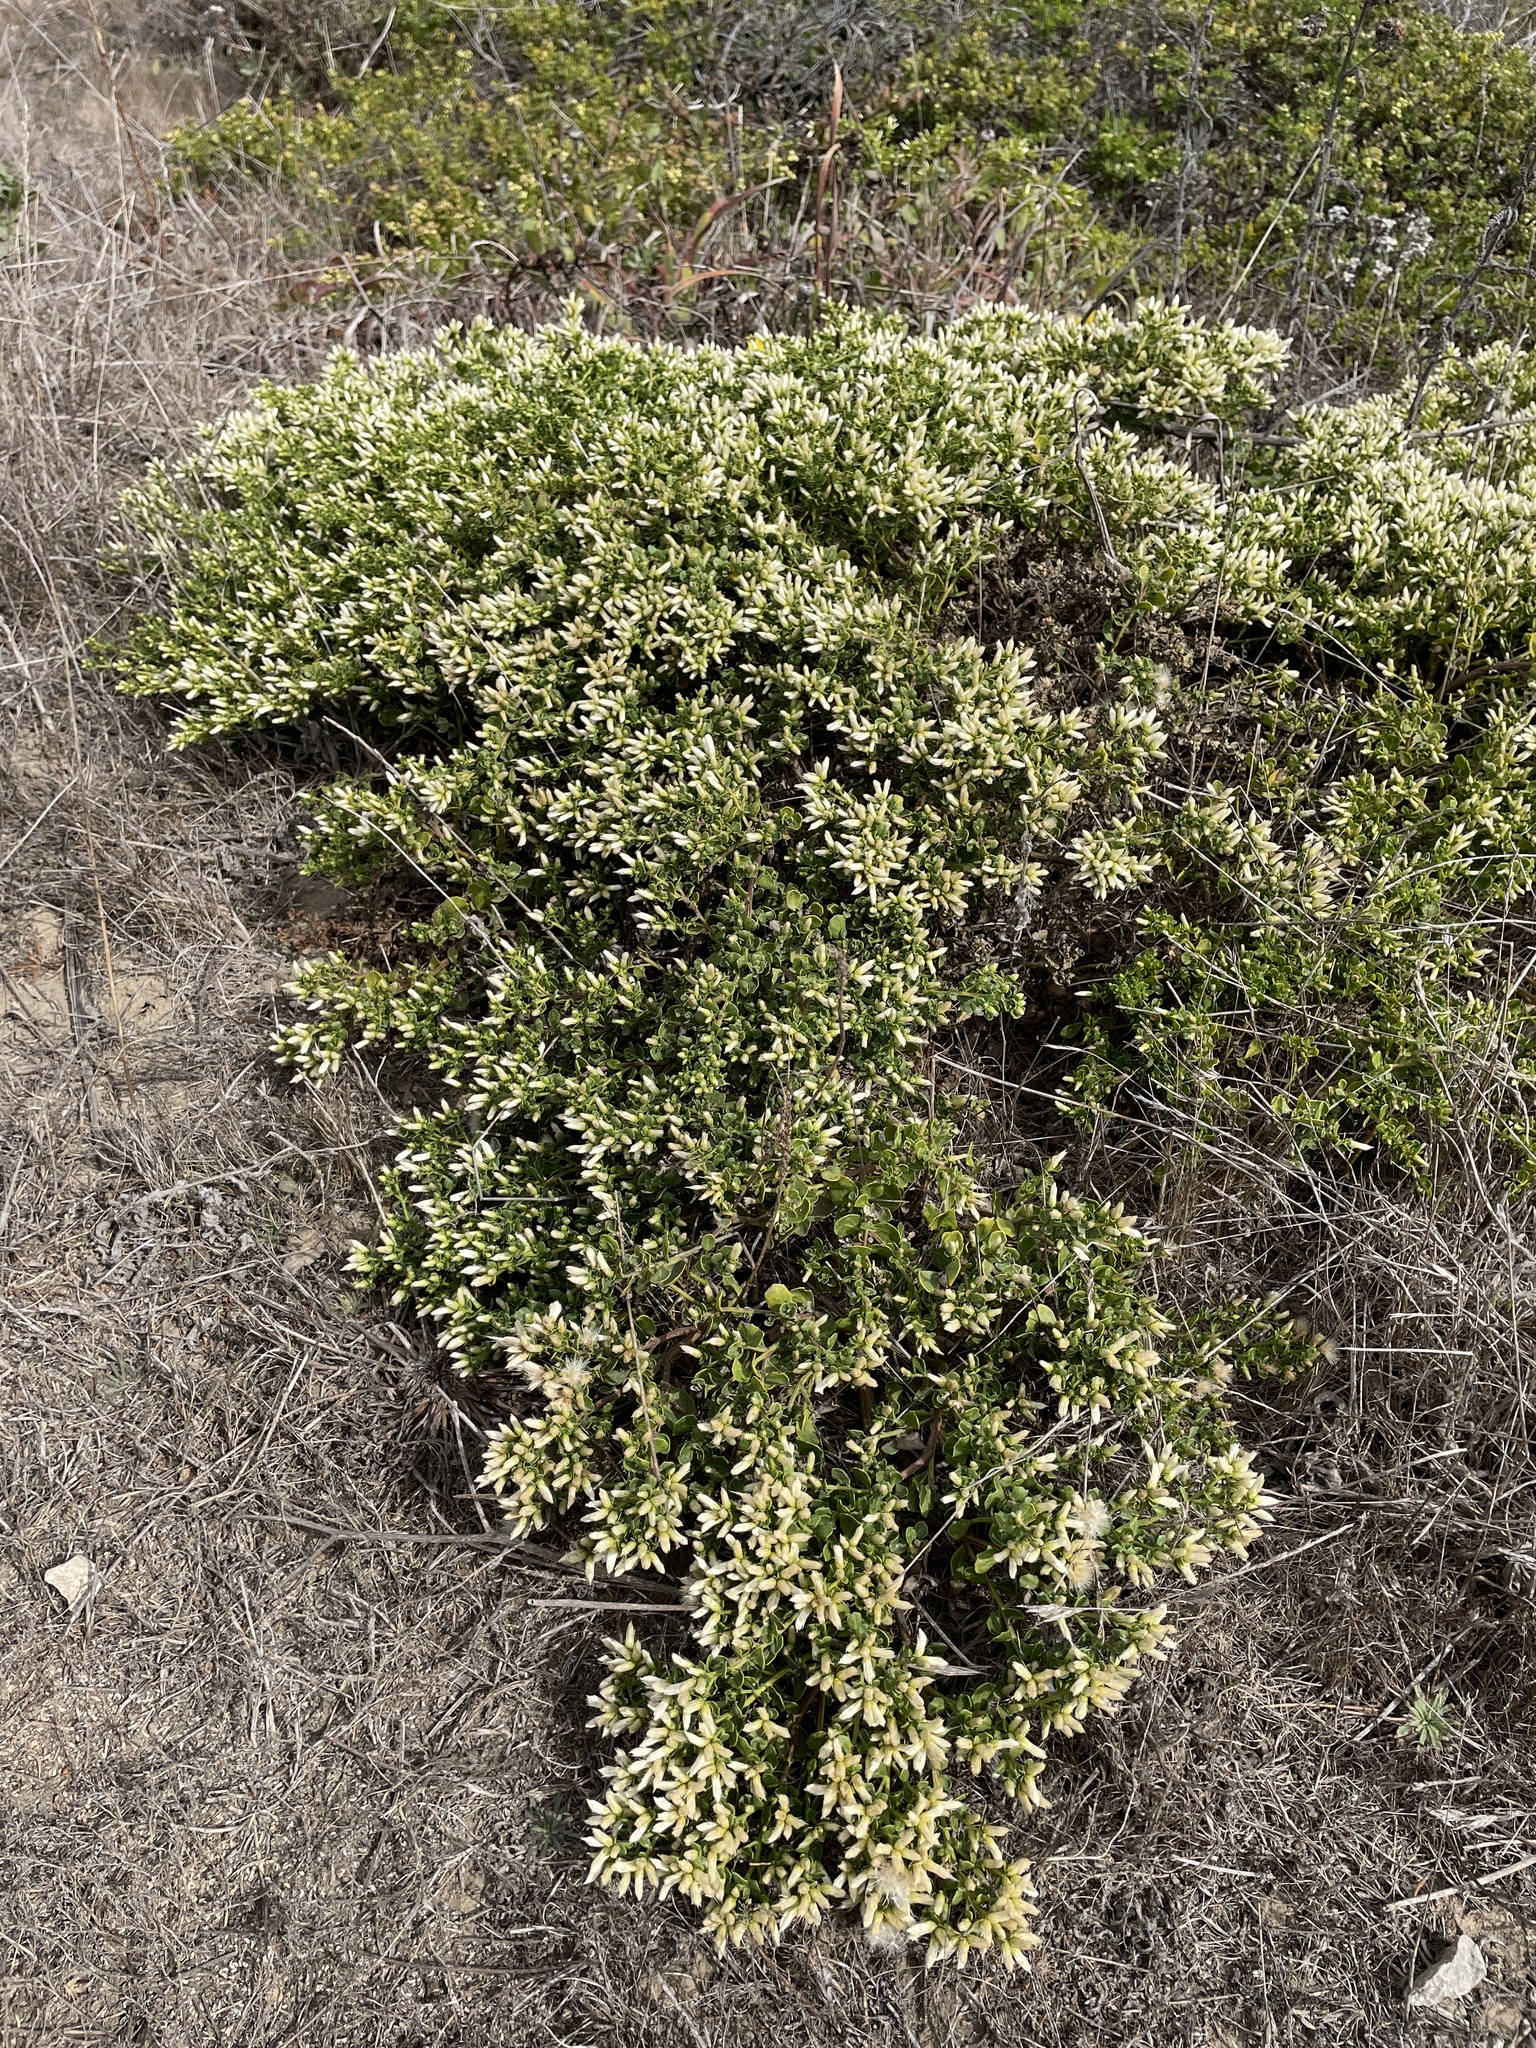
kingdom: Plantae
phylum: Tracheophyta
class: Magnoliopsida
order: Asterales
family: Asteraceae
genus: Baccharis
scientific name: Baccharis pilularis
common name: Coyotebrush
